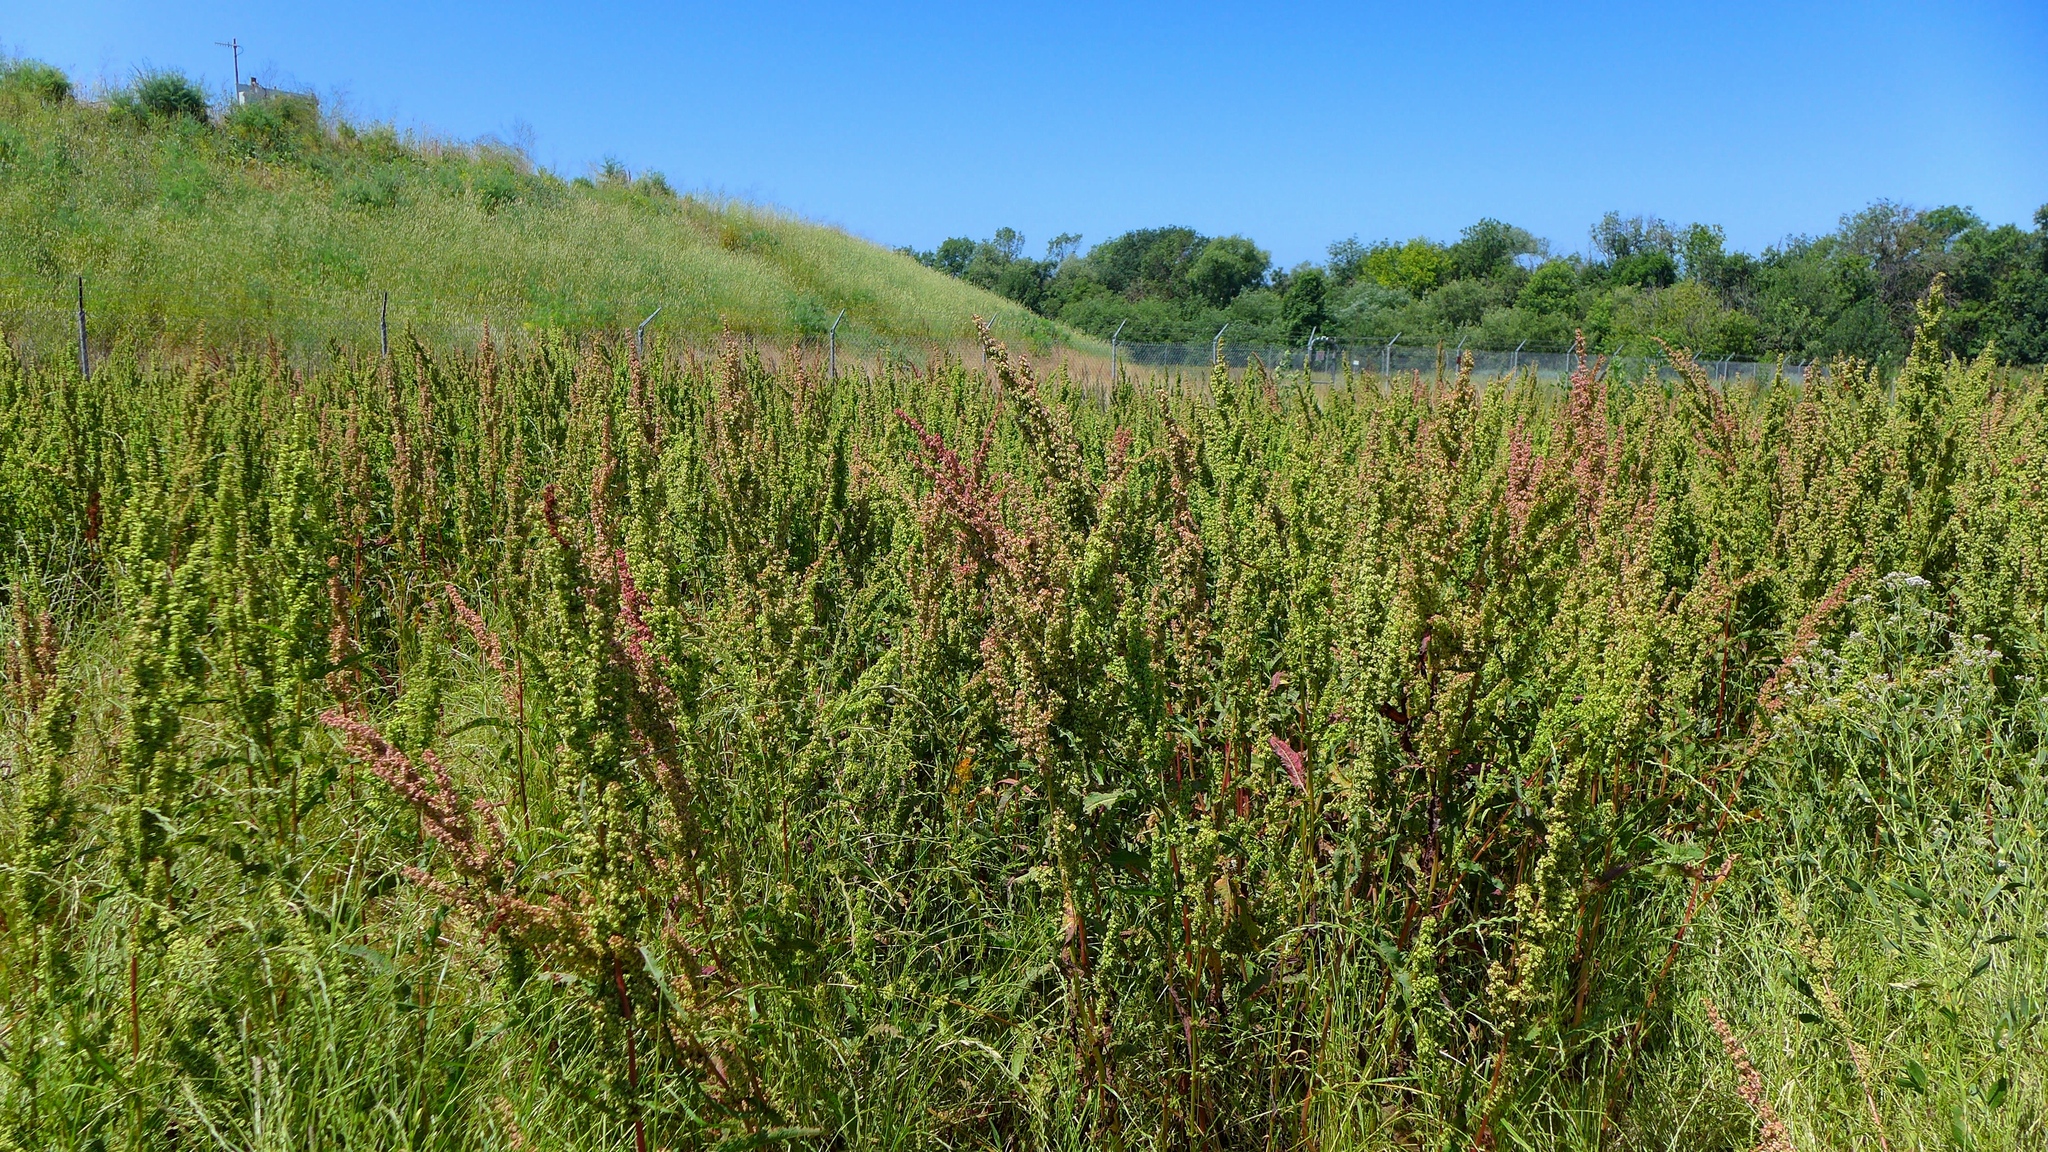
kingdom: Plantae
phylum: Tracheophyta
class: Magnoliopsida
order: Caryophyllales
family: Polygonaceae
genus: Rumex
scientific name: Rumex crispus
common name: Curled dock
